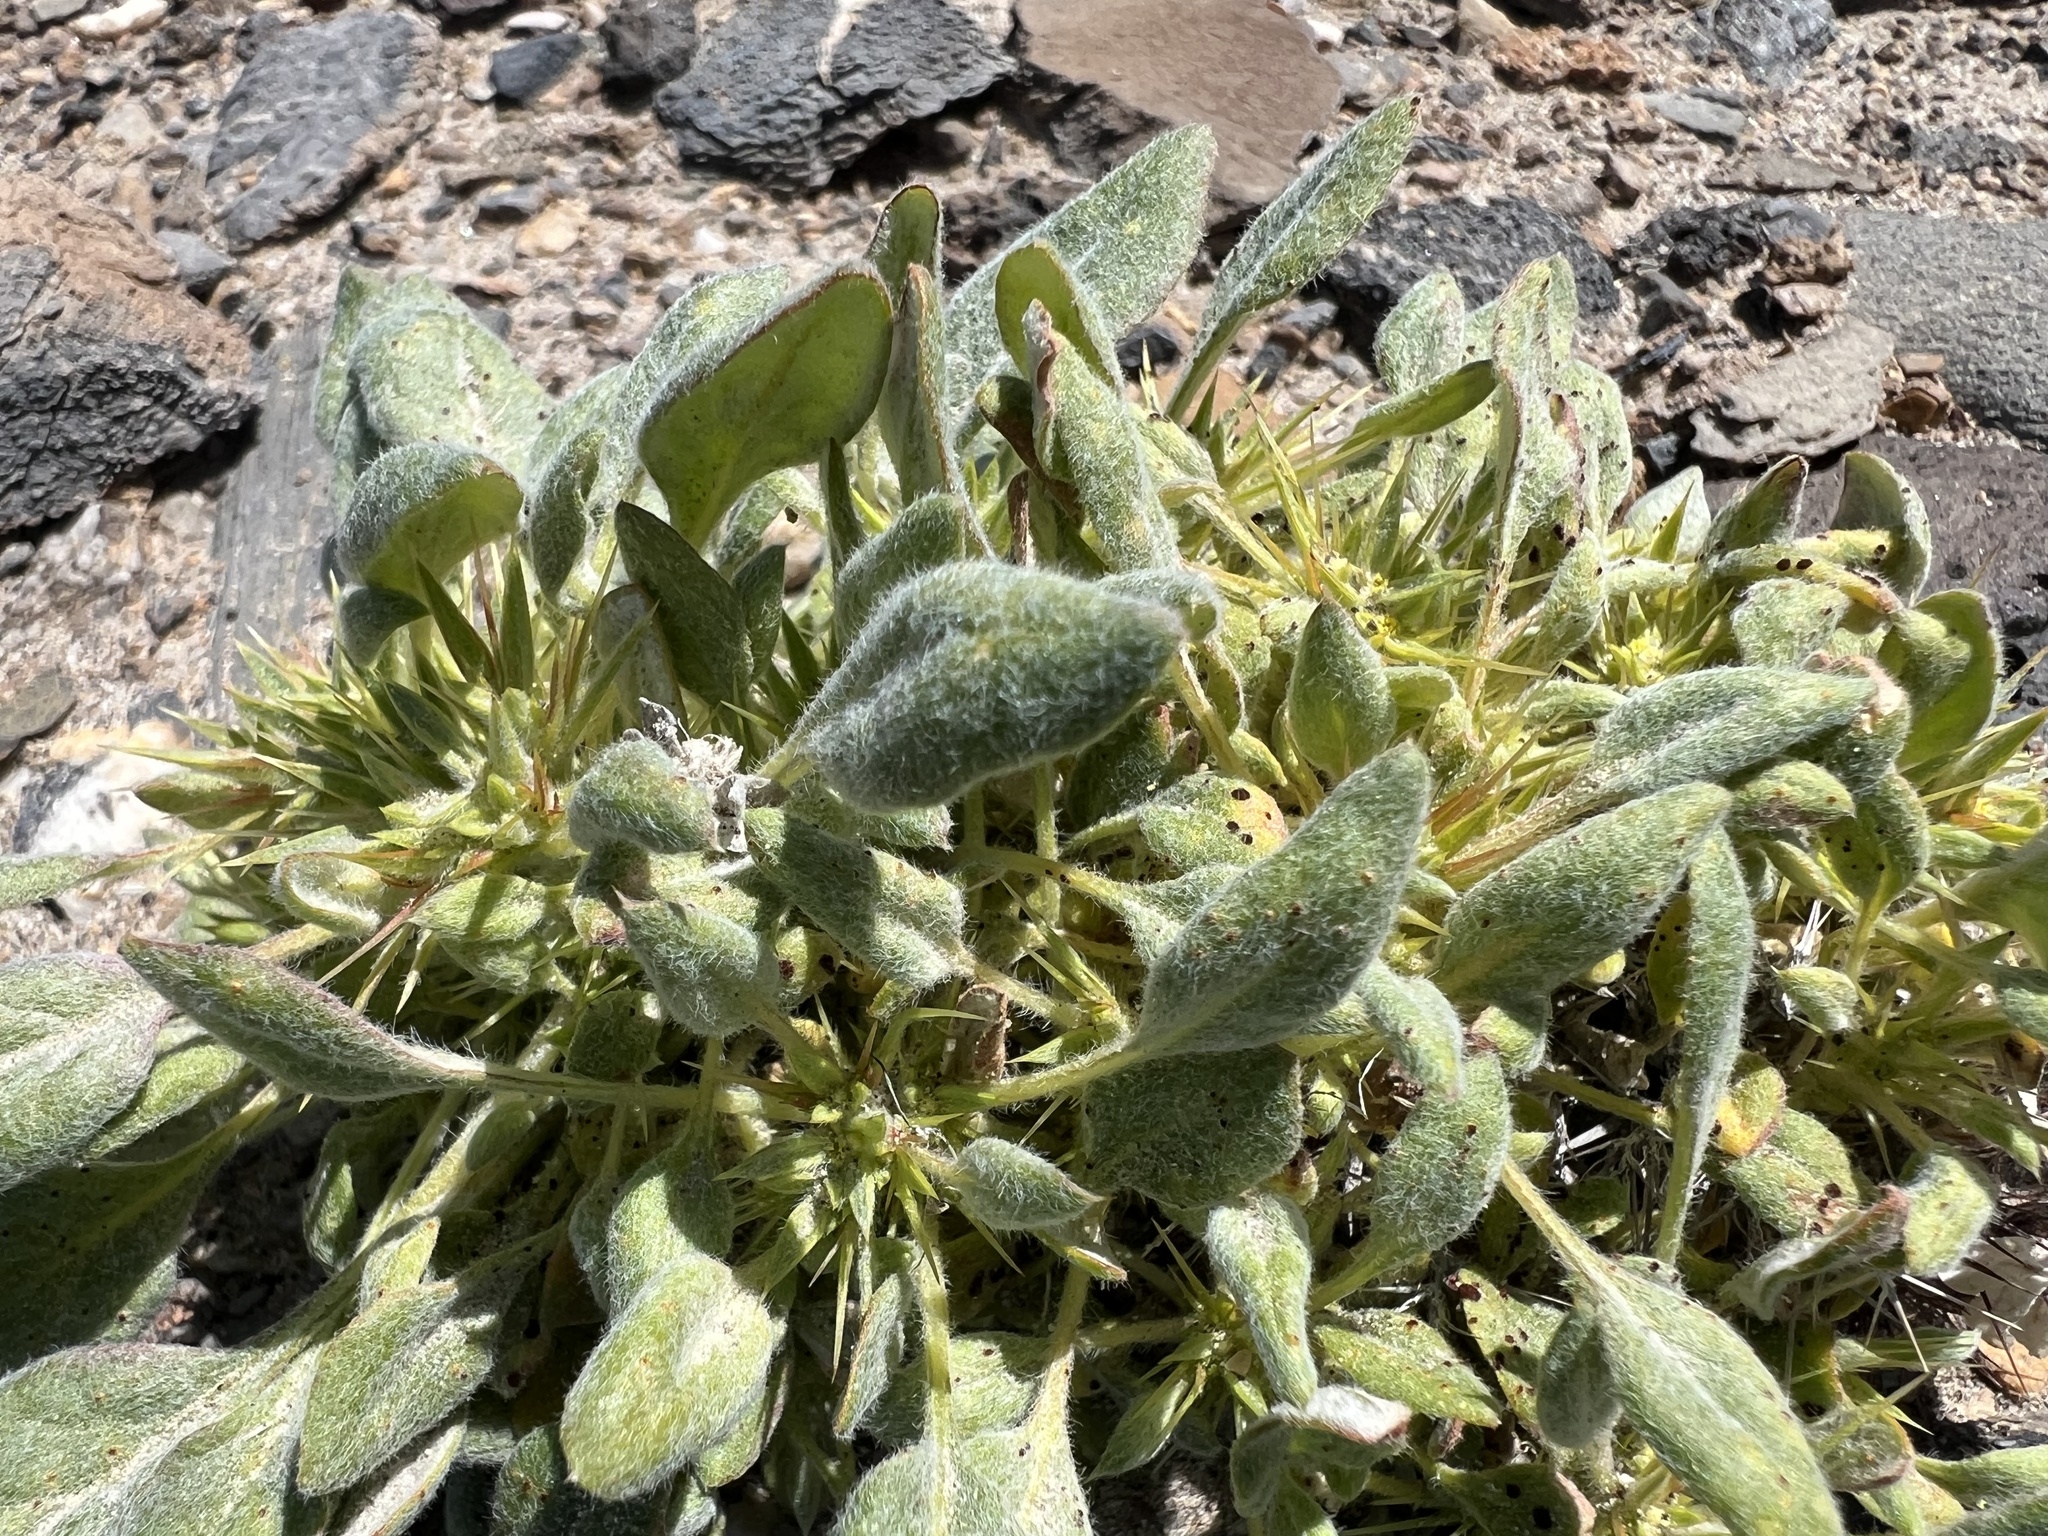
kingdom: Plantae
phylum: Tracheophyta
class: Magnoliopsida
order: Caryophyllales
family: Polygonaceae
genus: Chorizanthe
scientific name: Chorizanthe rigida
